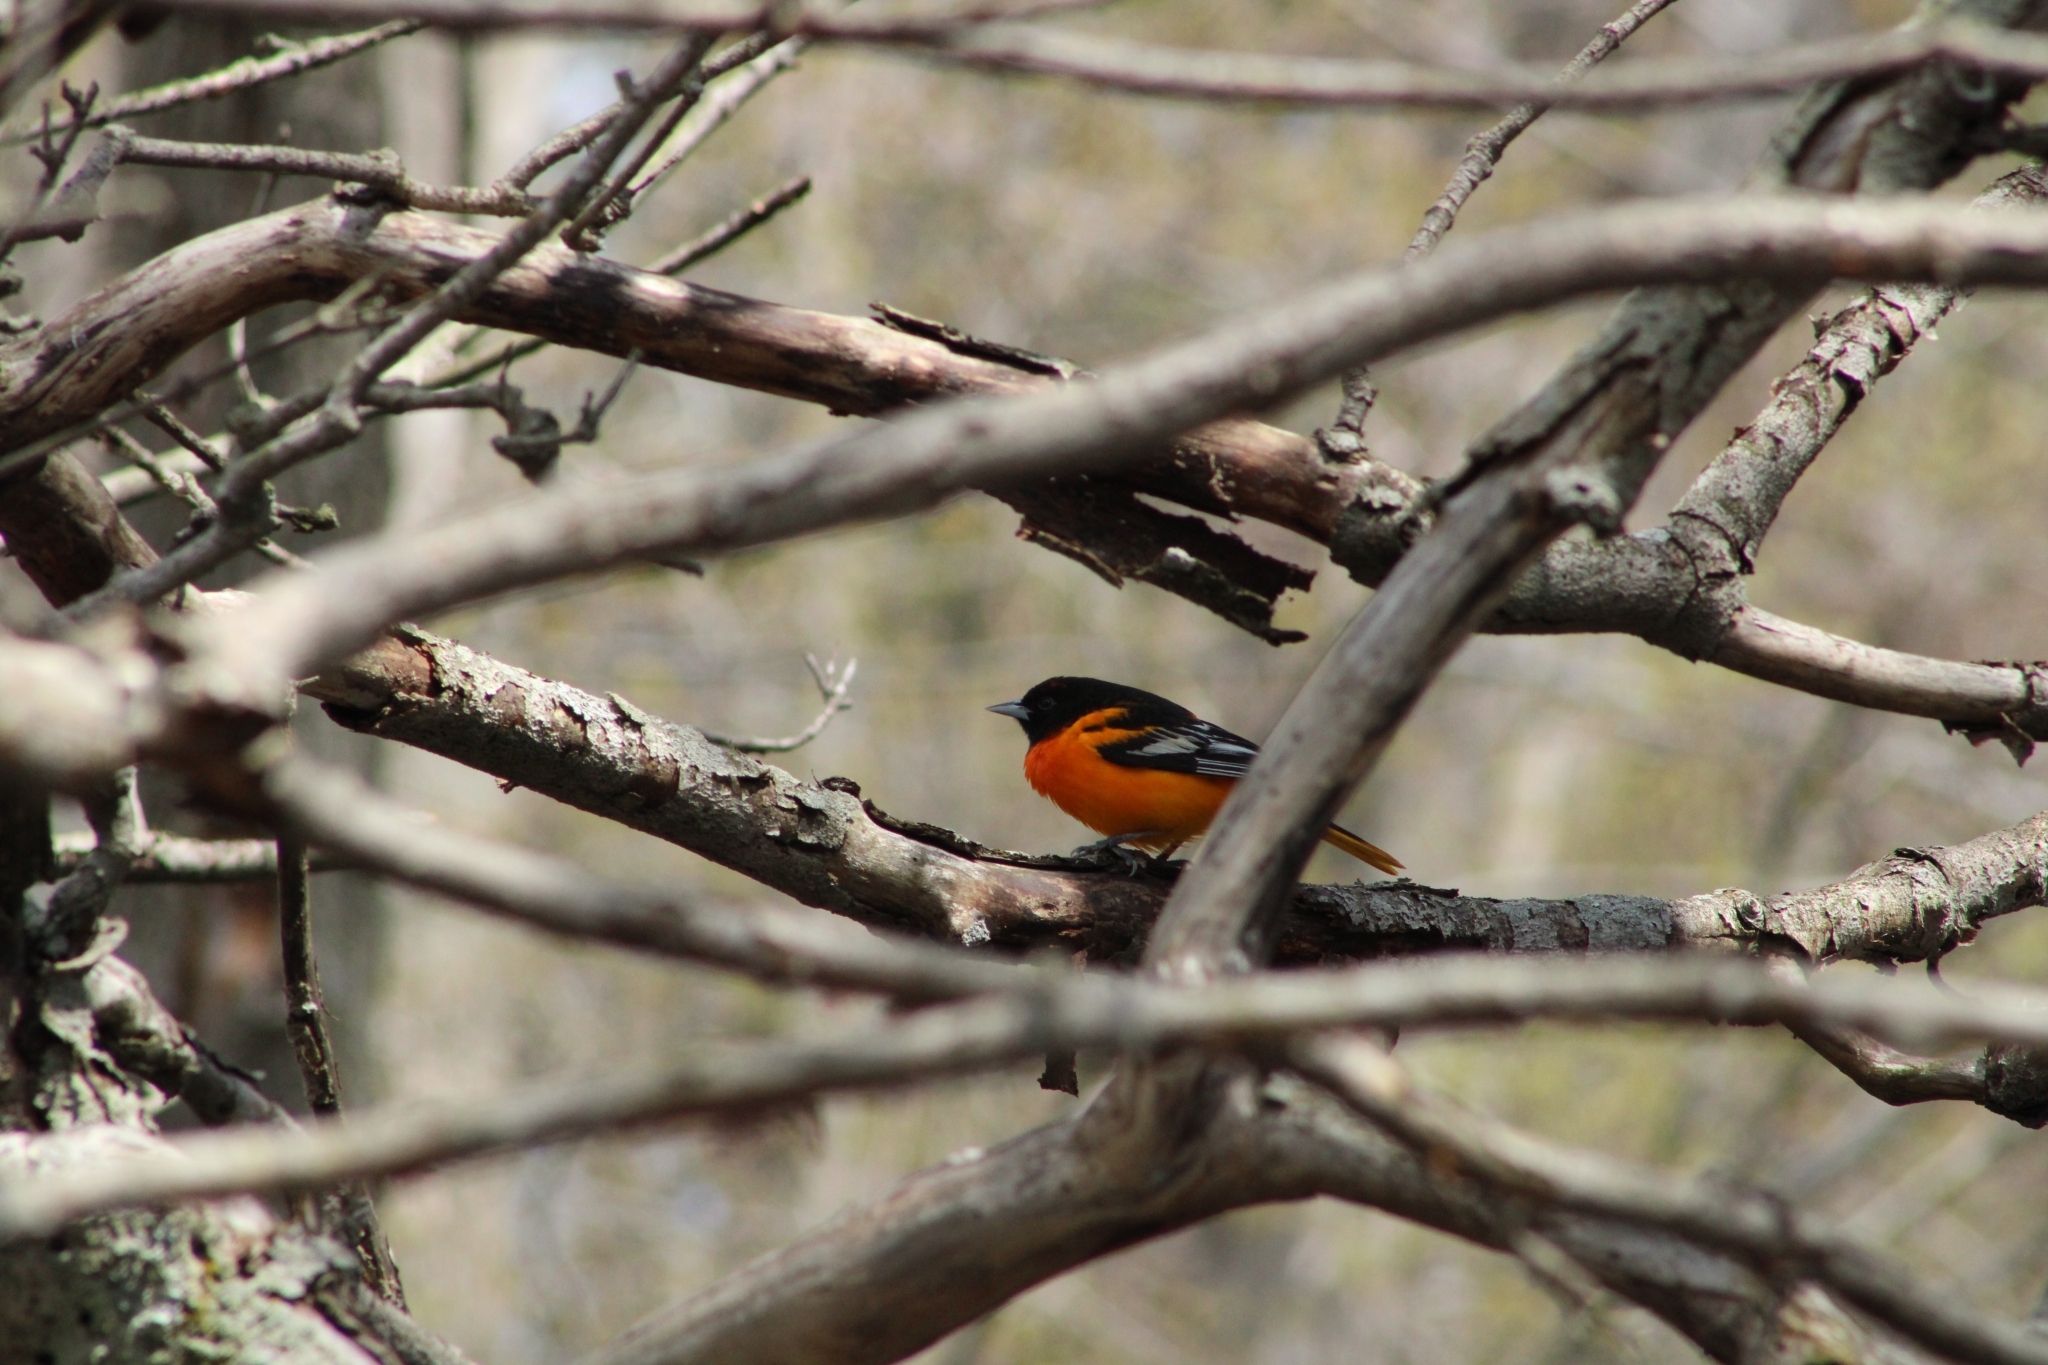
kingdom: Animalia
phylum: Chordata
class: Aves
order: Passeriformes
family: Icteridae
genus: Icterus
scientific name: Icterus galbula
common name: Baltimore oriole
